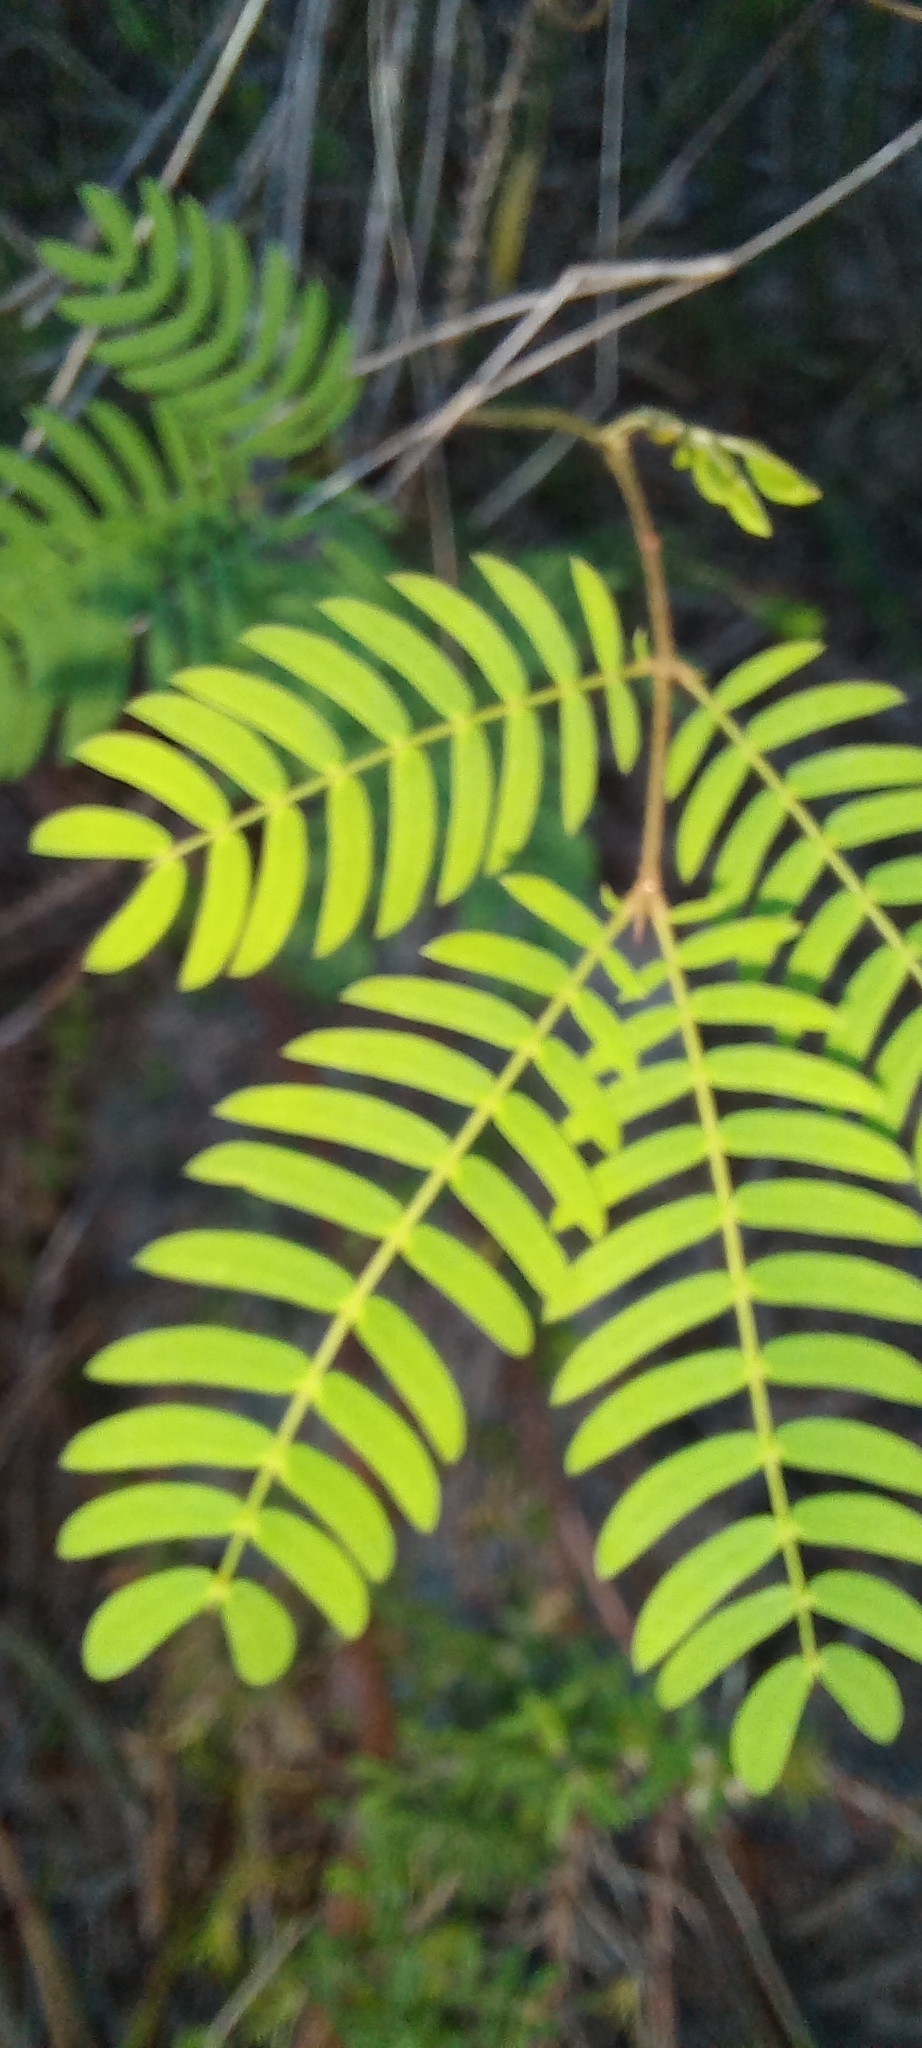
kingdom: Plantae
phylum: Tracheophyta
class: Magnoliopsida
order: Fabales
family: Fabaceae
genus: Acacia
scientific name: Acacia elata
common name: Cedar wattle
